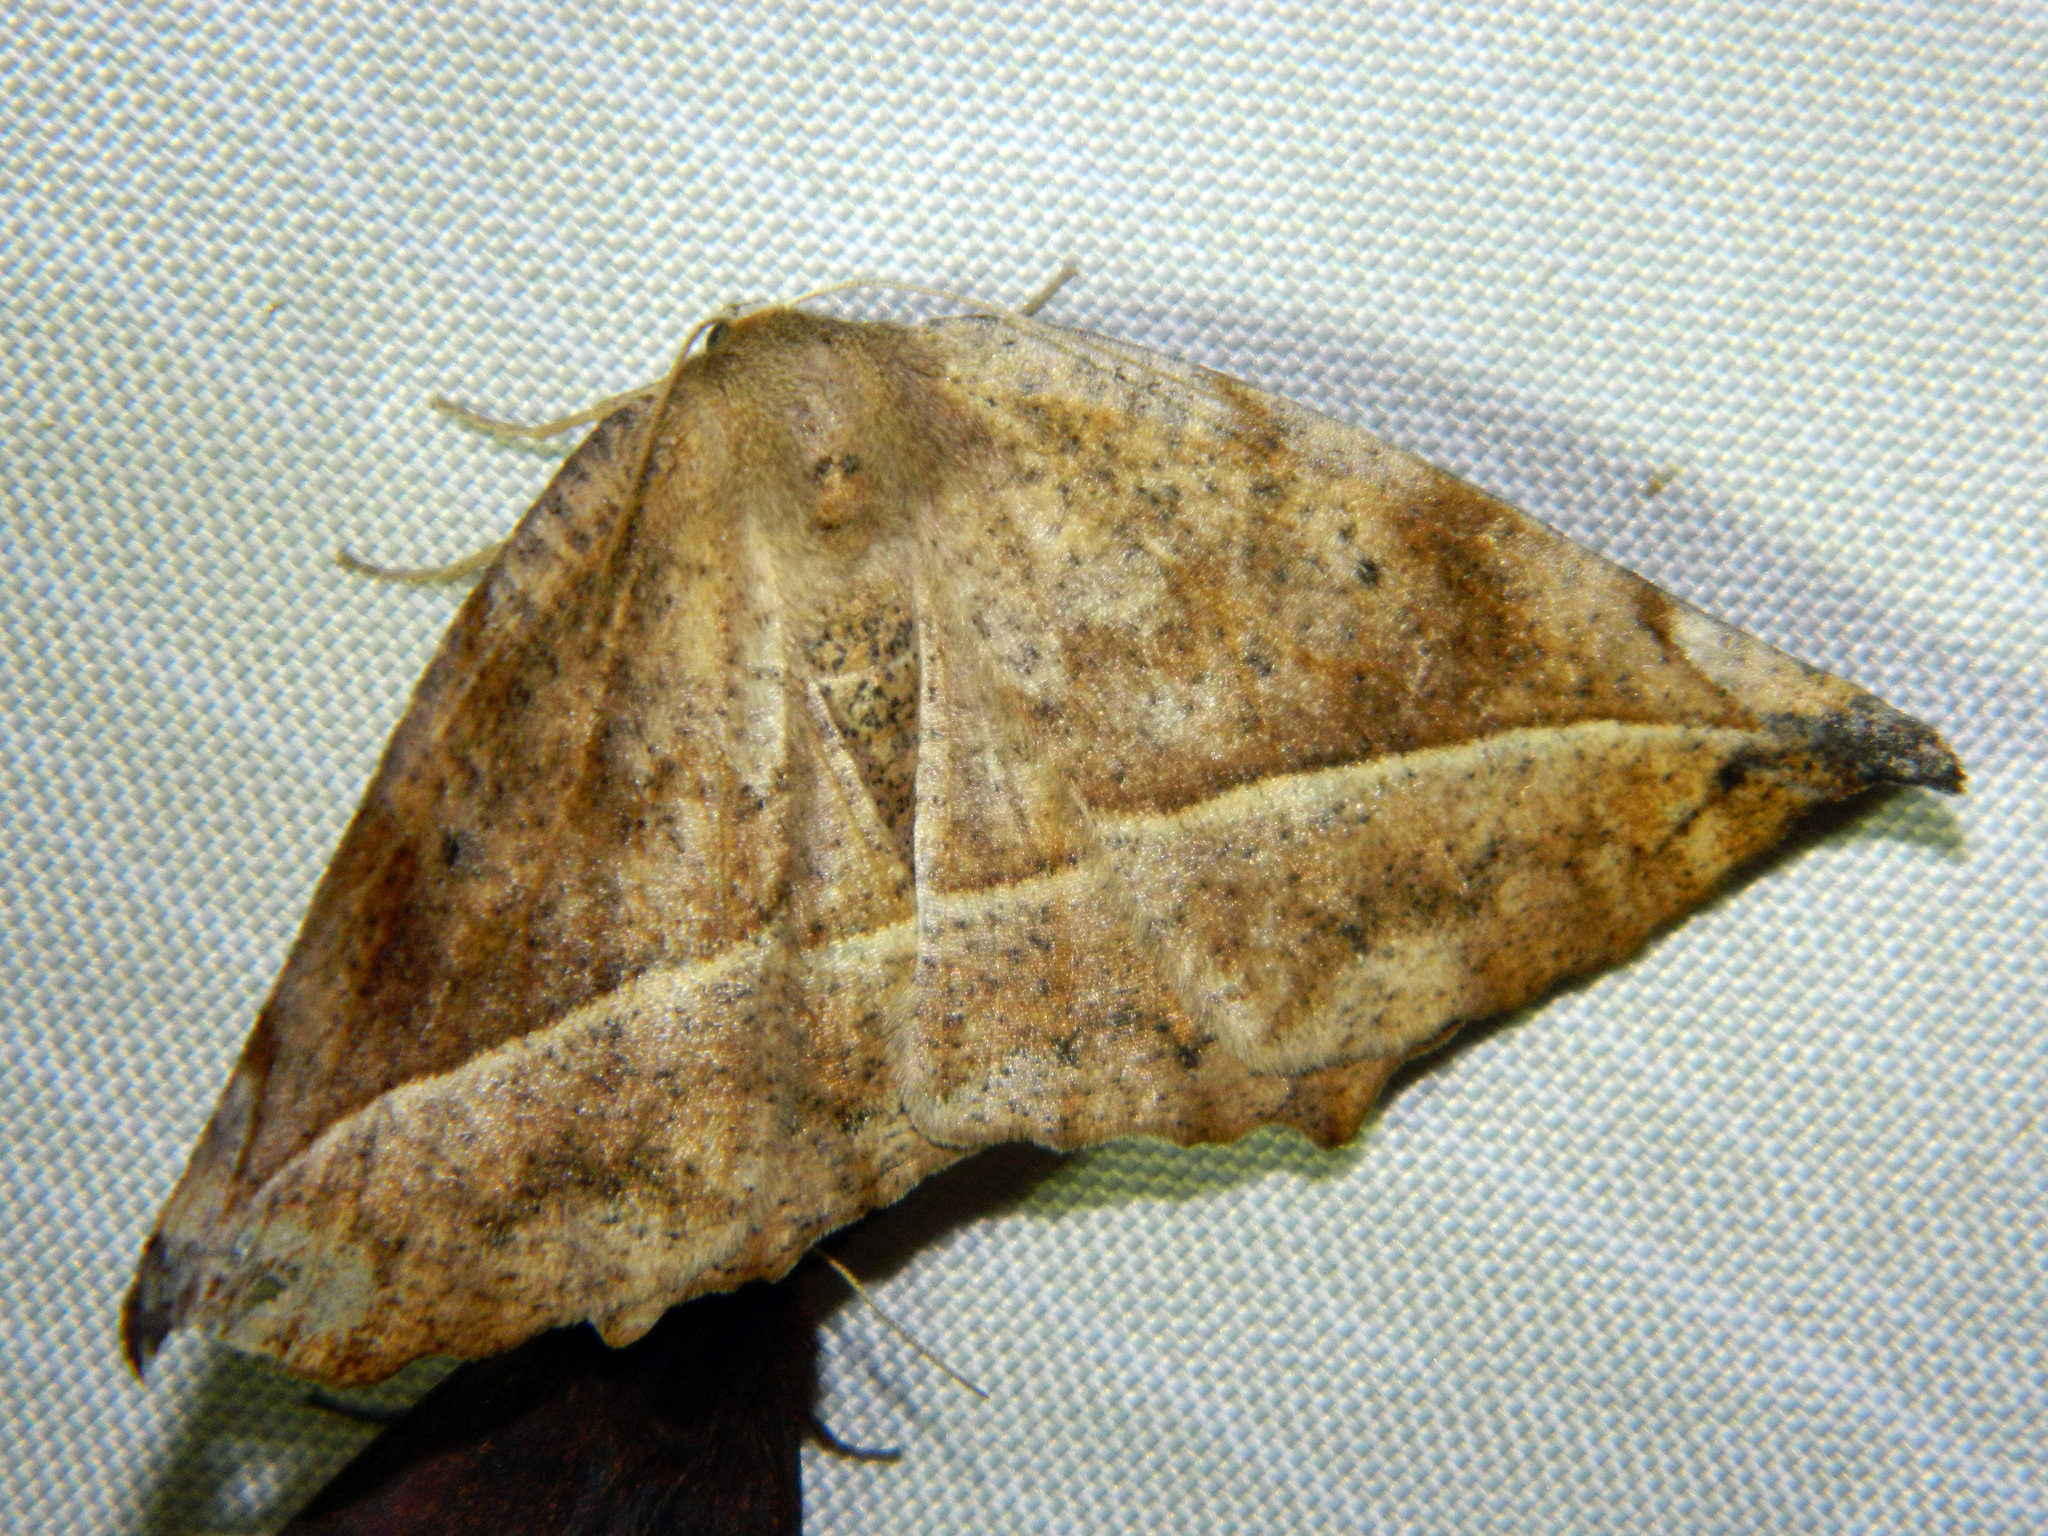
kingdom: Animalia
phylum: Arthropoda
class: Insecta
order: Lepidoptera
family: Geometridae
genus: Eutrapela
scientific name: Eutrapela clemataria
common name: Curved-toothed geometer
